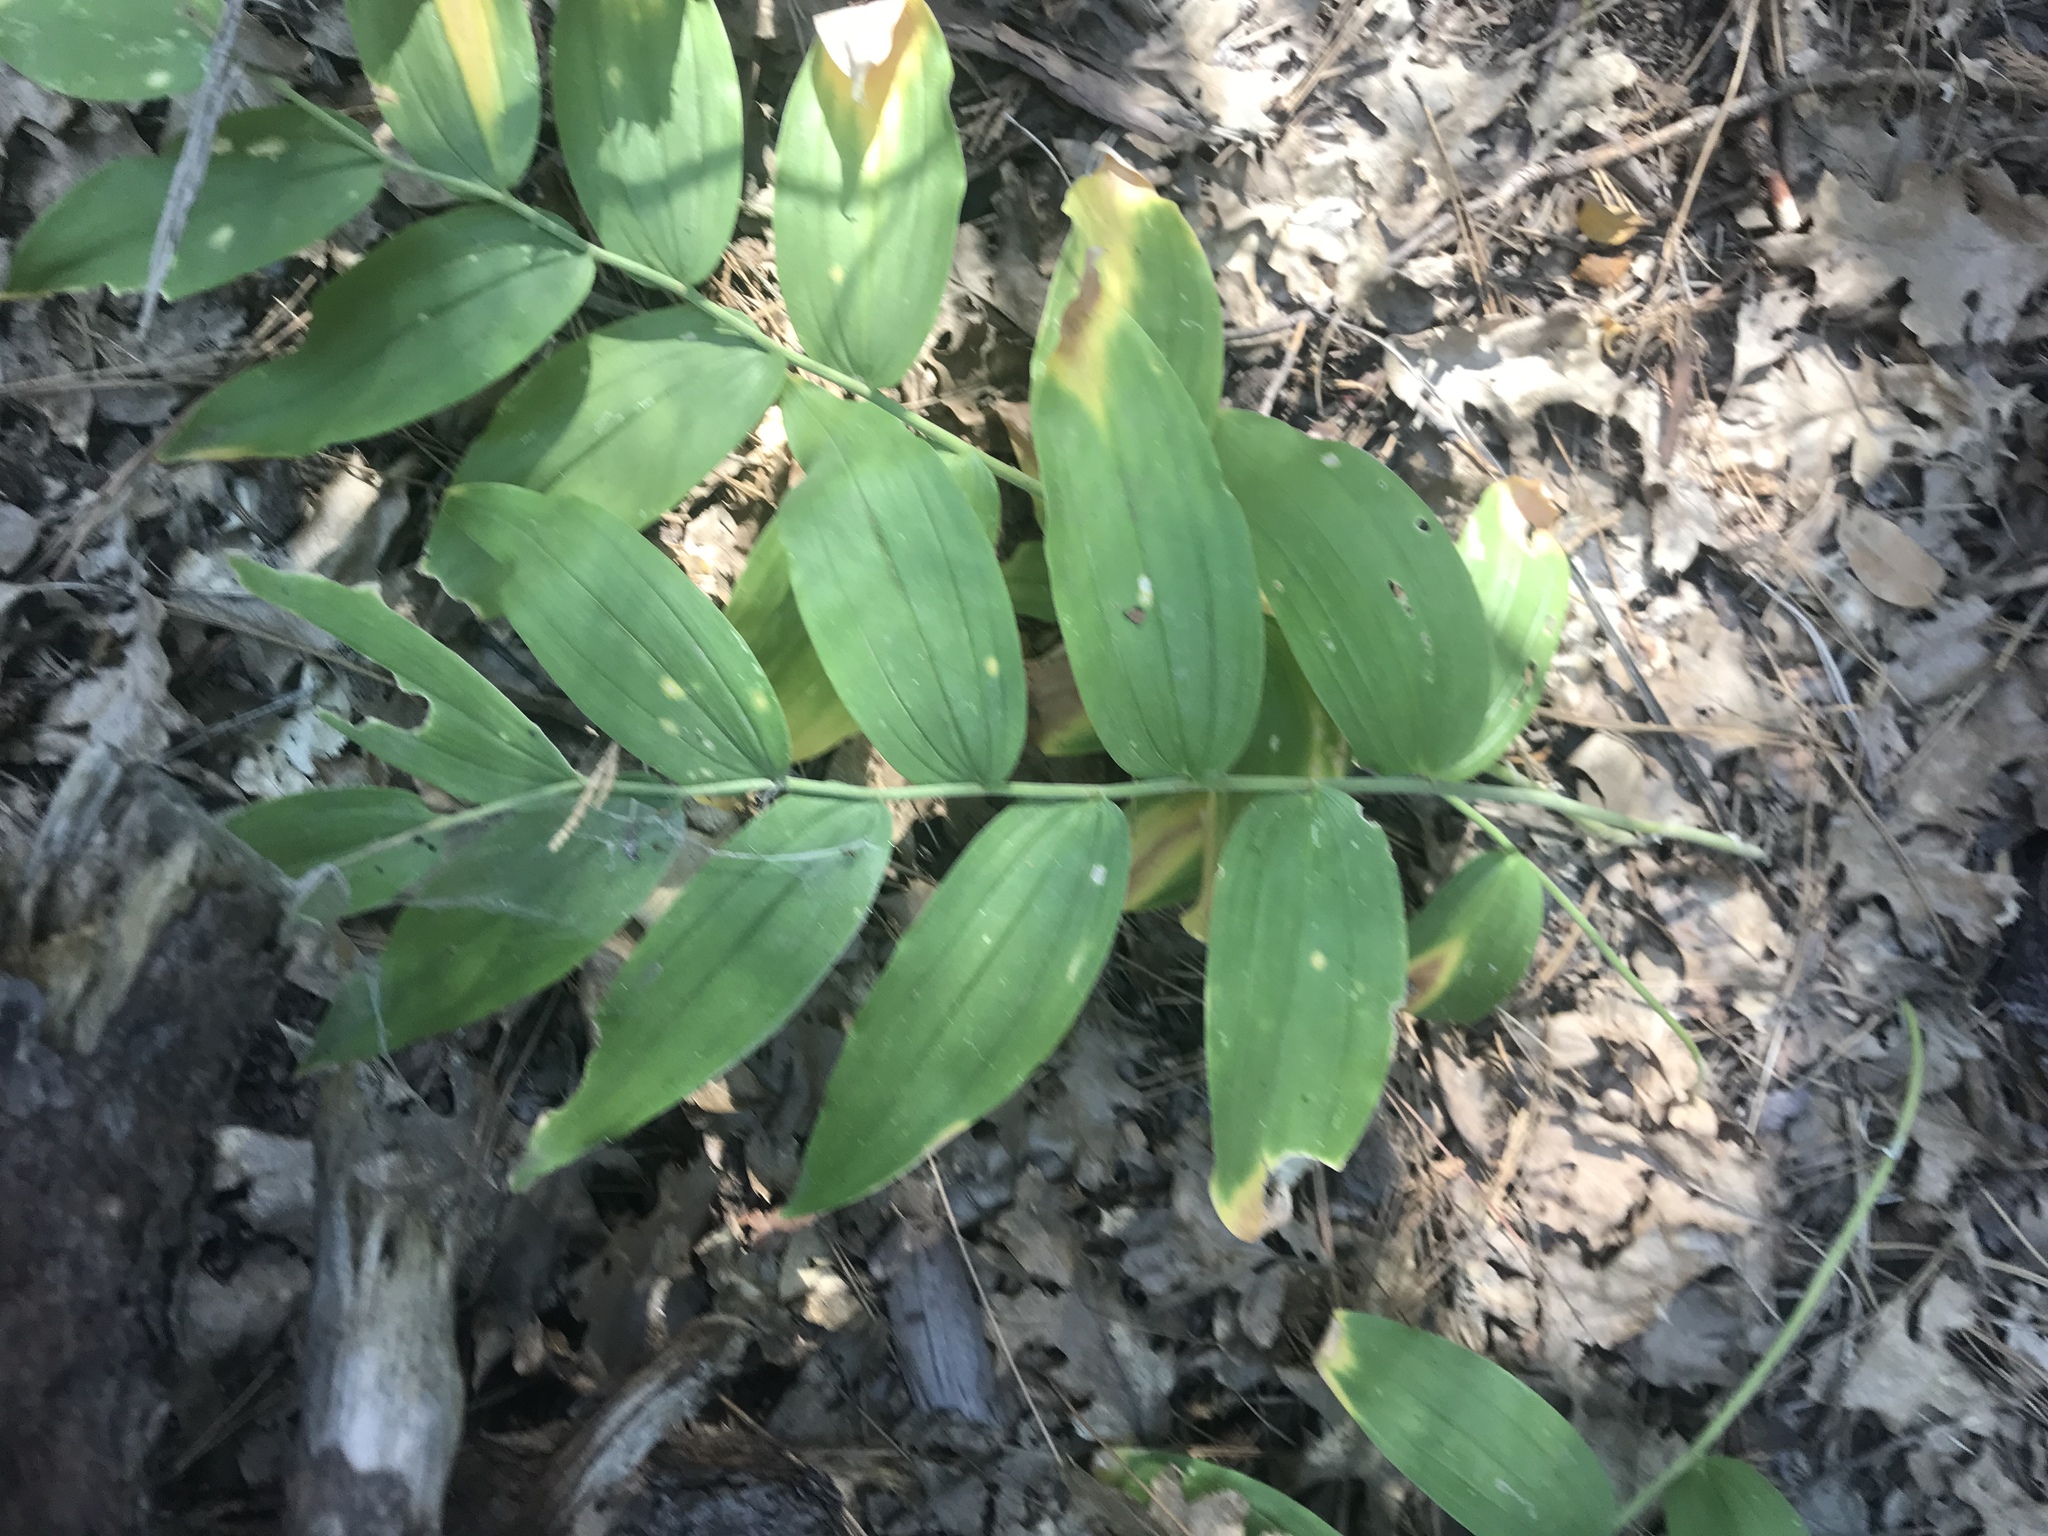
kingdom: Plantae
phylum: Tracheophyta
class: Liliopsida
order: Asparagales
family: Asparagaceae
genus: Maianthemum
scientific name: Maianthemum racemosum
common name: False spikenard
